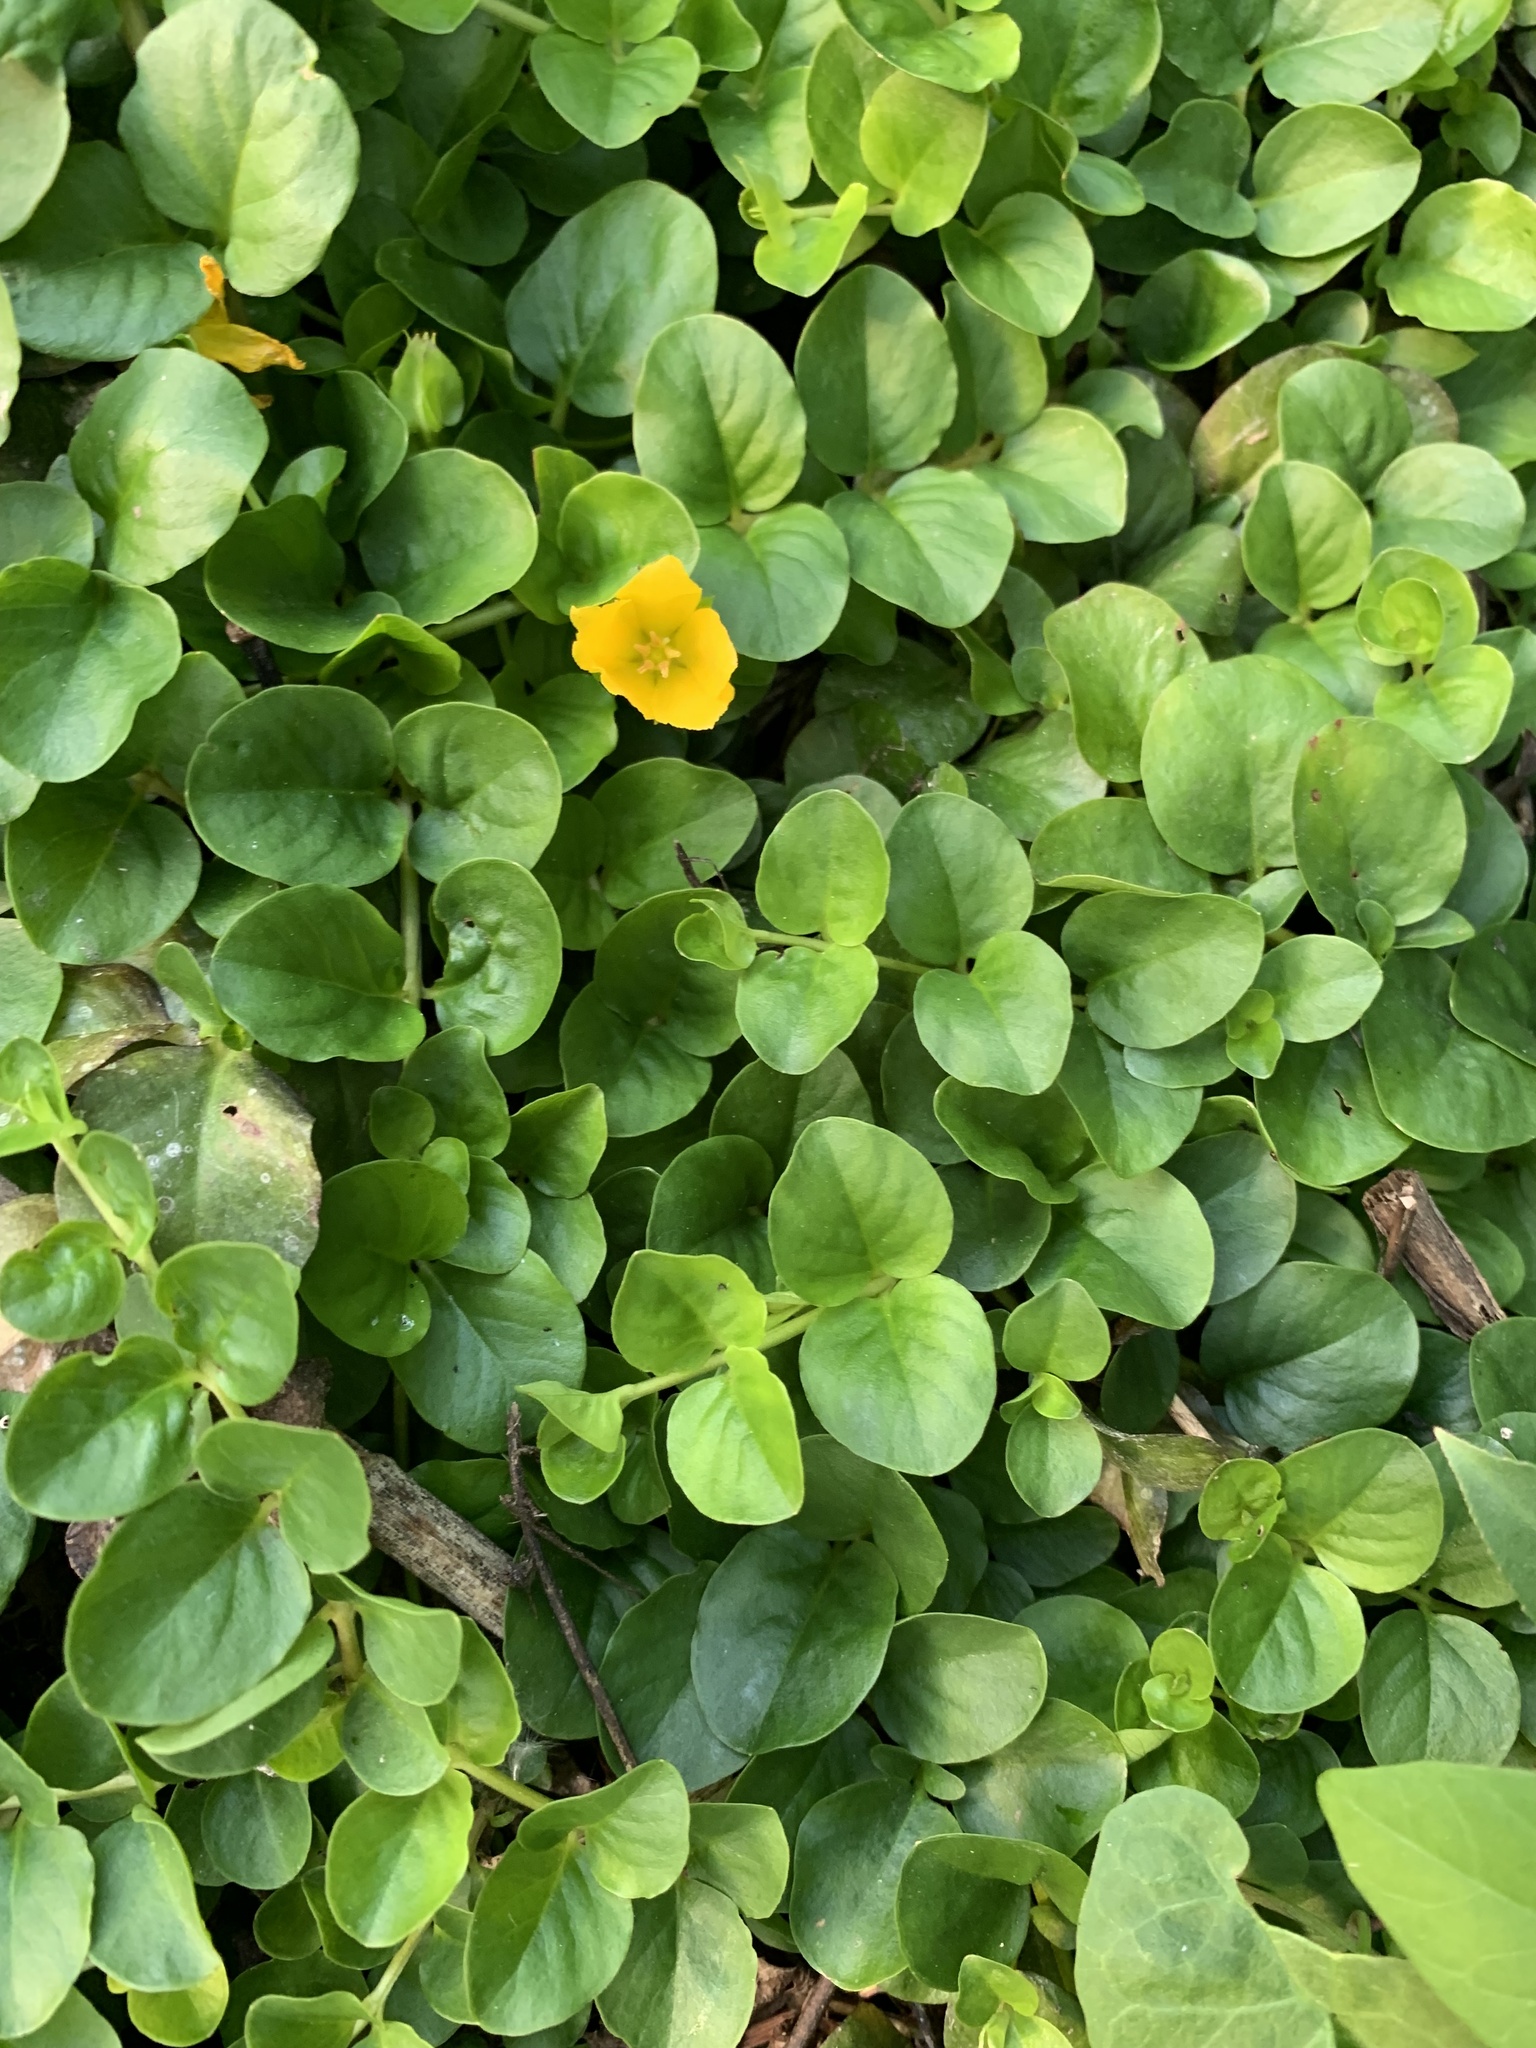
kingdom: Plantae
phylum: Tracheophyta
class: Magnoliopsida
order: Ericales
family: Primulaceae
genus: Lysimachia
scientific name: Lysimachia nummularia
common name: Moneywort
